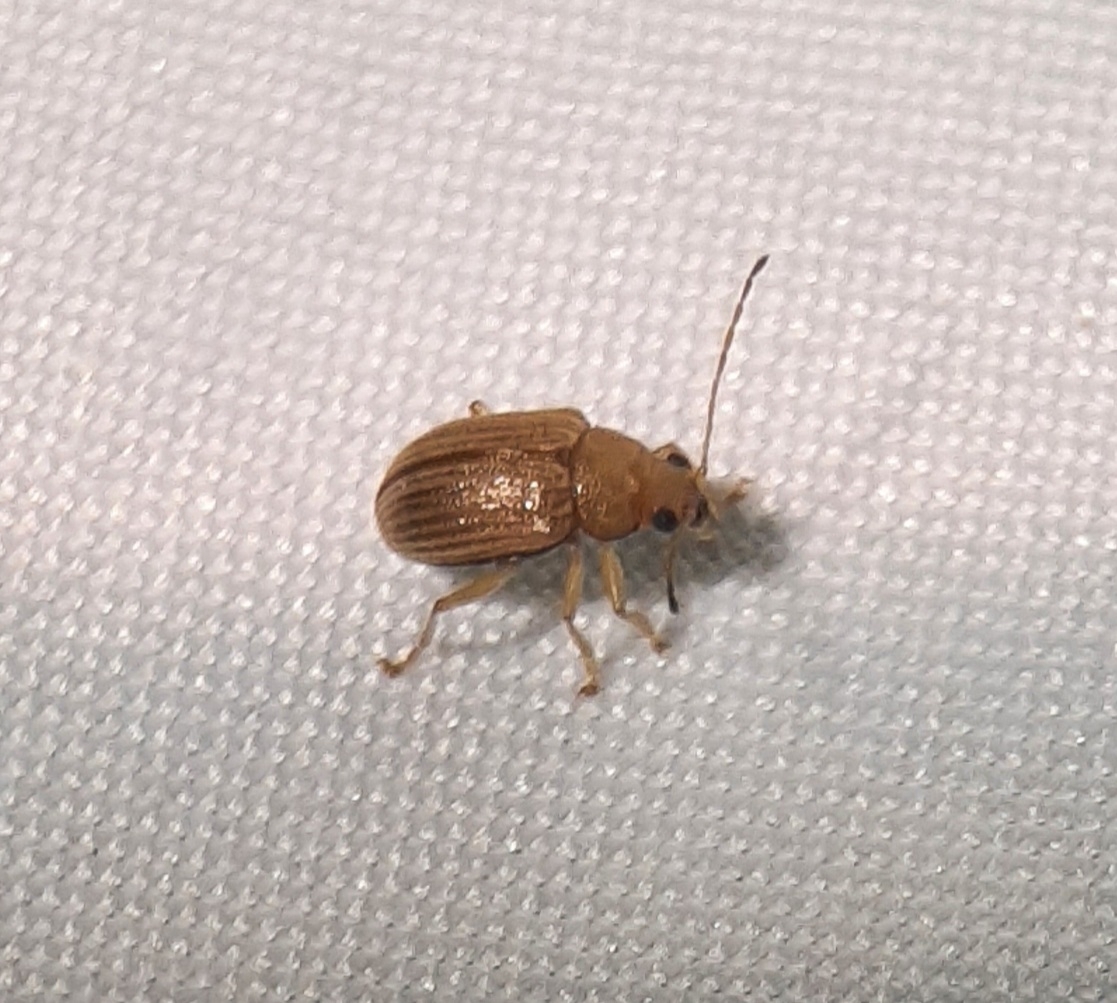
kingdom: Animalia
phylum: Arthropoda
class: Insecta
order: Coleoptera
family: Chrysomelidae
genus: Colaspis
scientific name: Colaspis brunnea
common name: Grape colaspis
